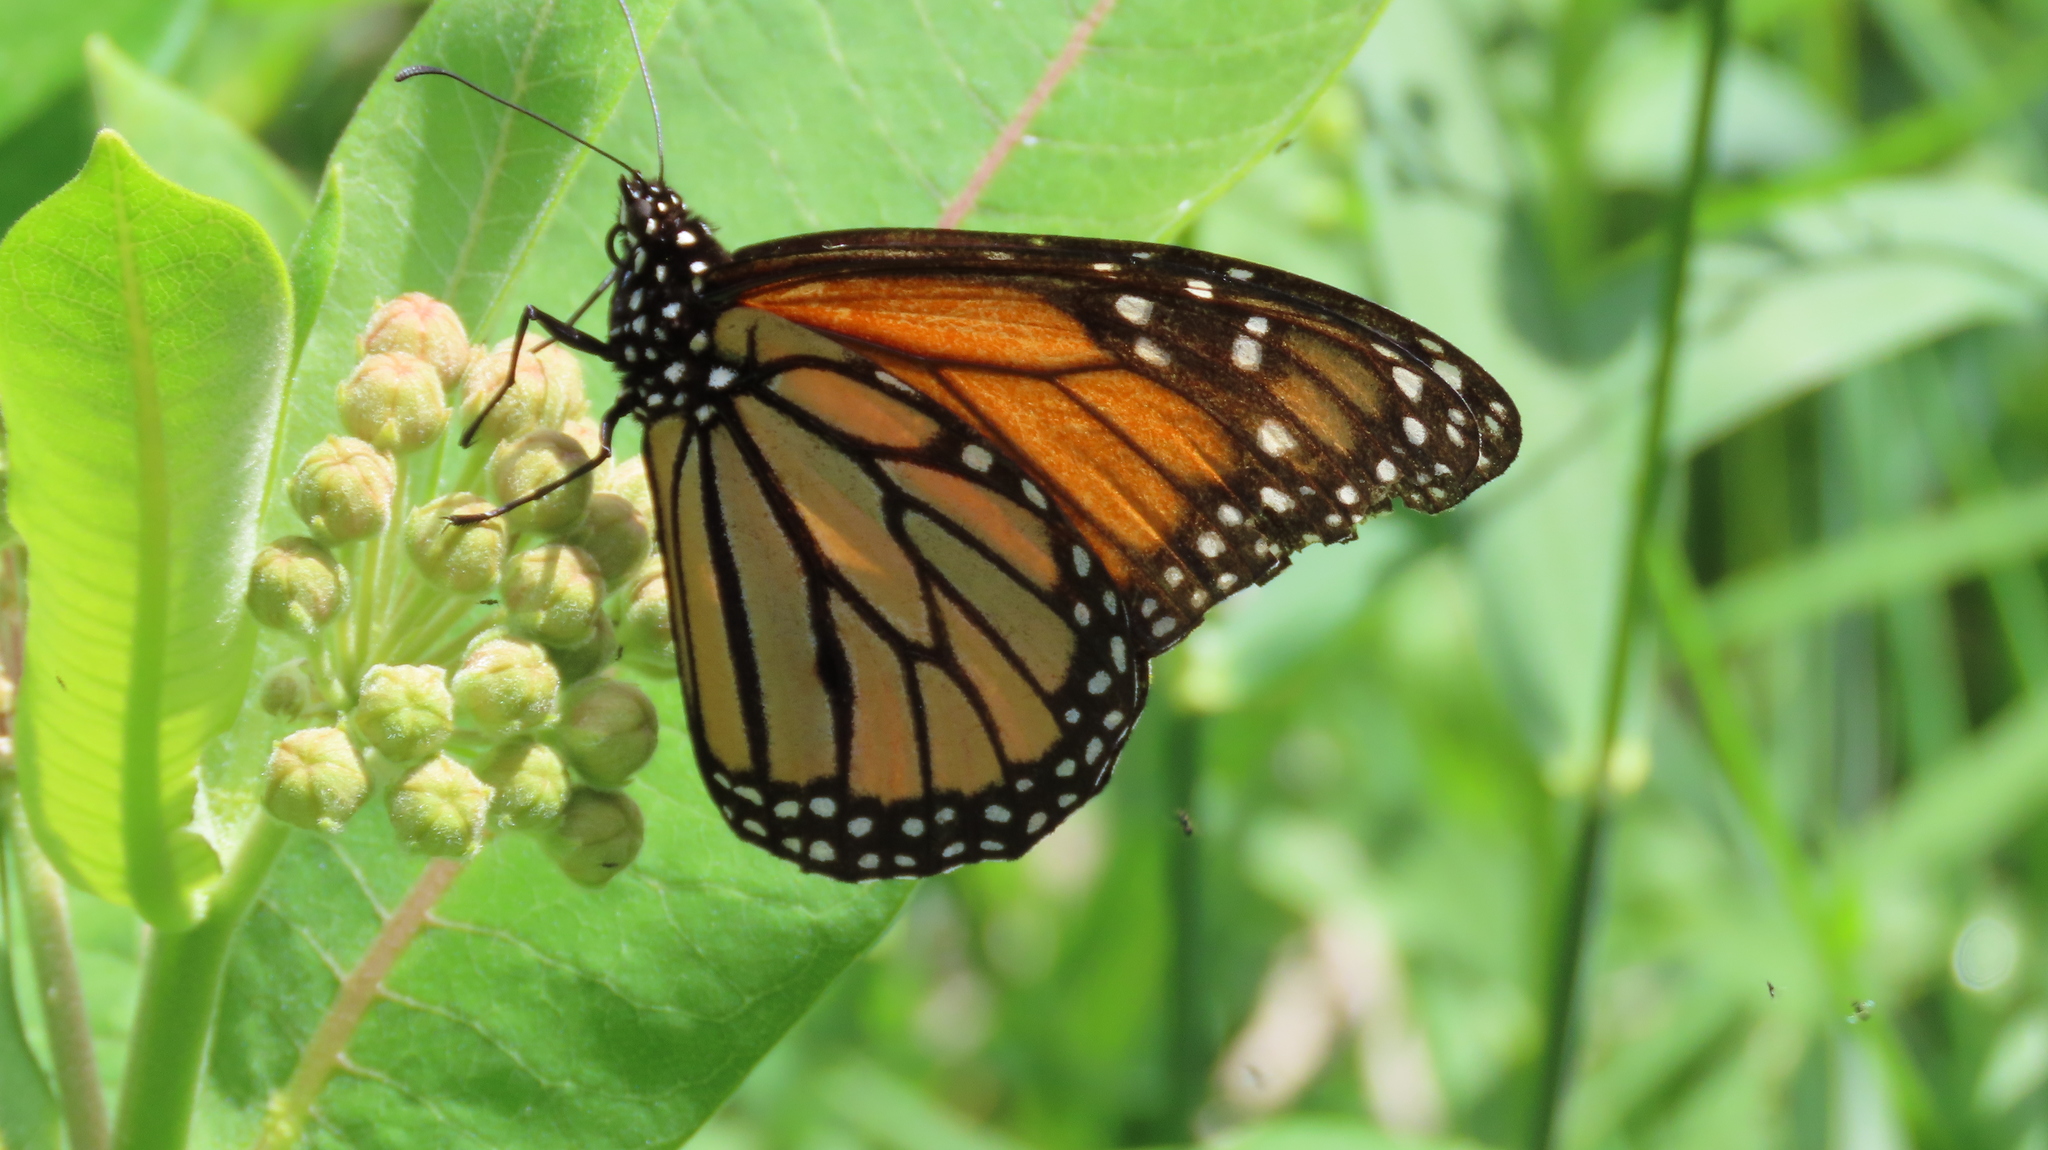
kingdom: Animalia
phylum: Arthropoda
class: Insecta
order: Lepidoptera
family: Nymphalidae
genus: Danaus
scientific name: Danaus plexippus
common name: Monarch
